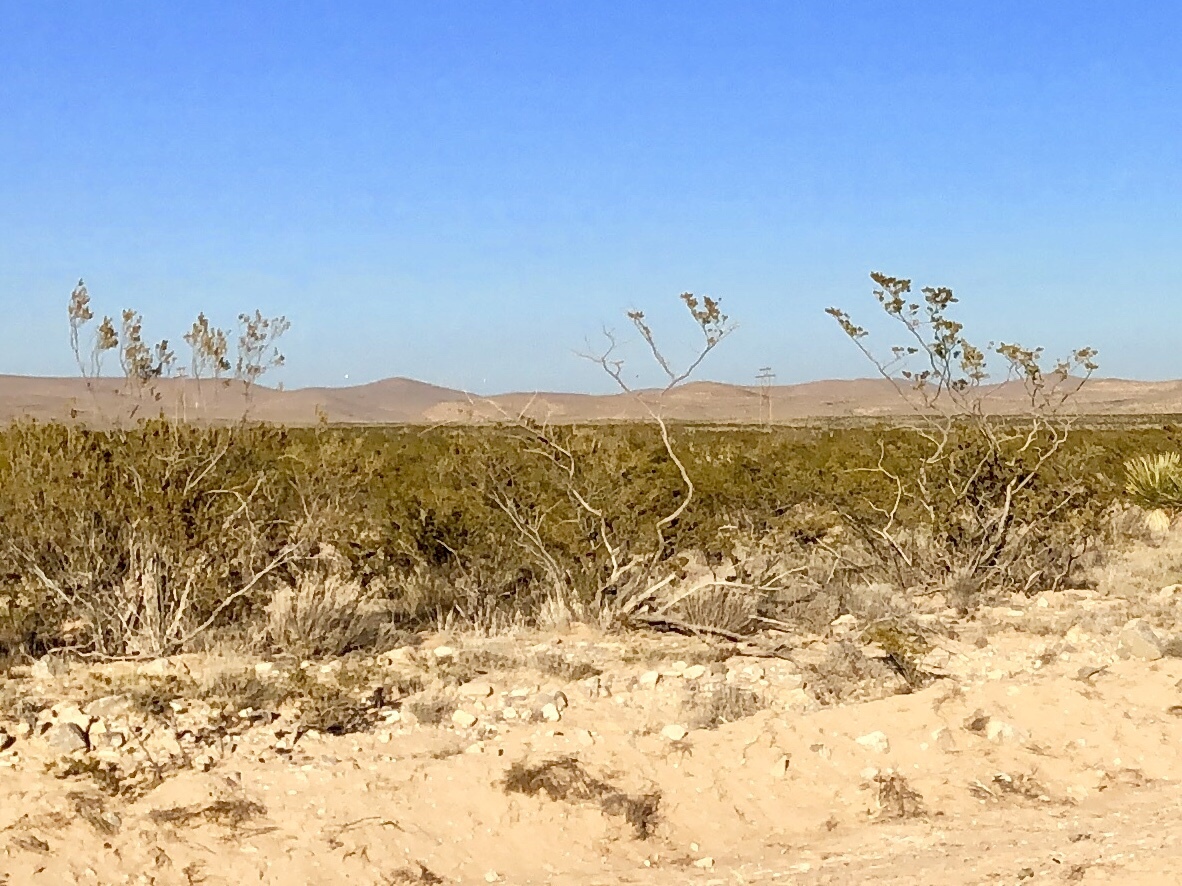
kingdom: Plantae
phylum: Tracheophyta
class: Magnoliopsida
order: Zygophyllales
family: Zygophyllaceae
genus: Larrea
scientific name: Larrea tridentata
